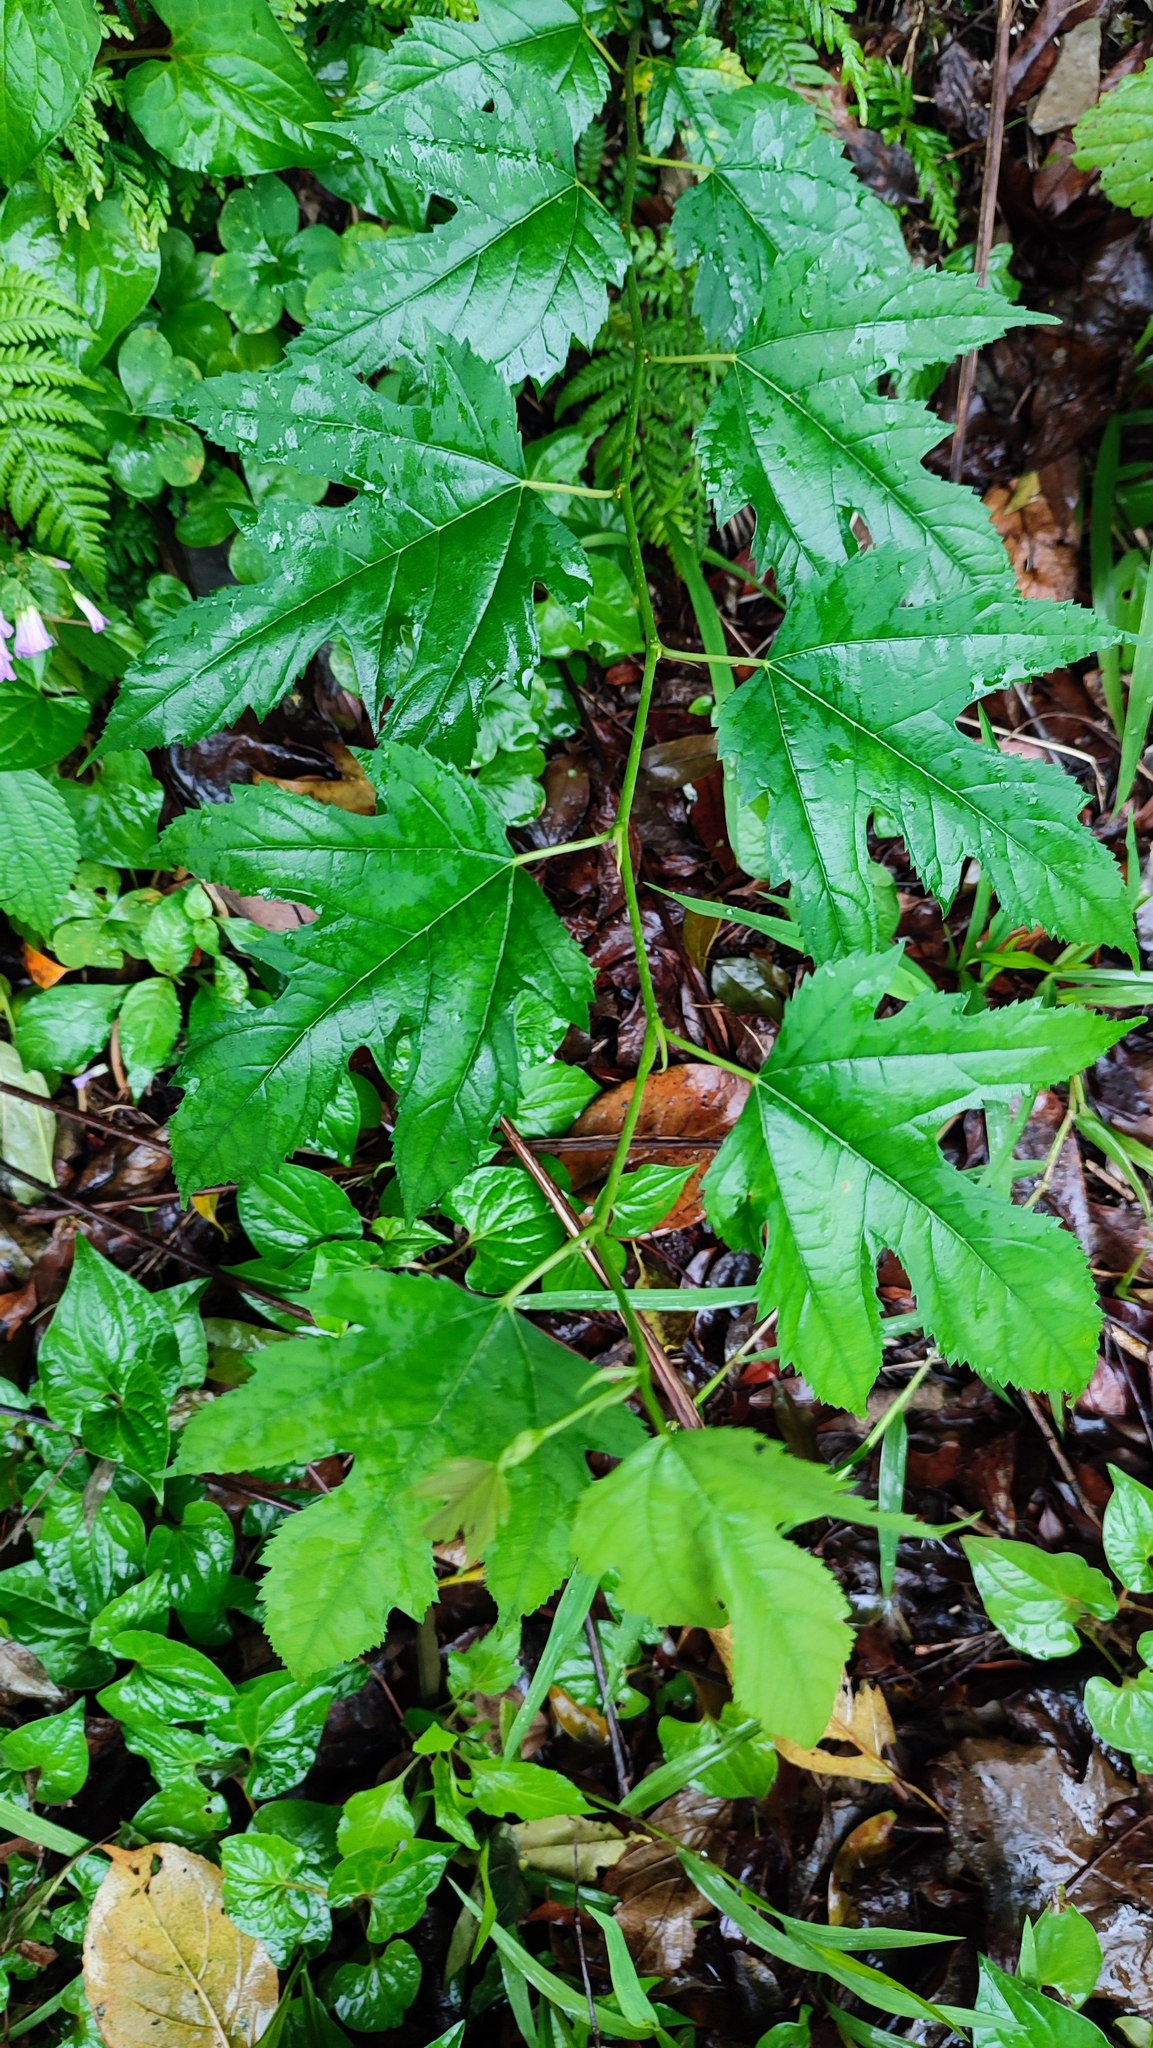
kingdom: Plantae
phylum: Tracheophyta
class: Magnoliopsida
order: Rosales
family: Moraceae
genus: Morus
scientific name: Morus indica
